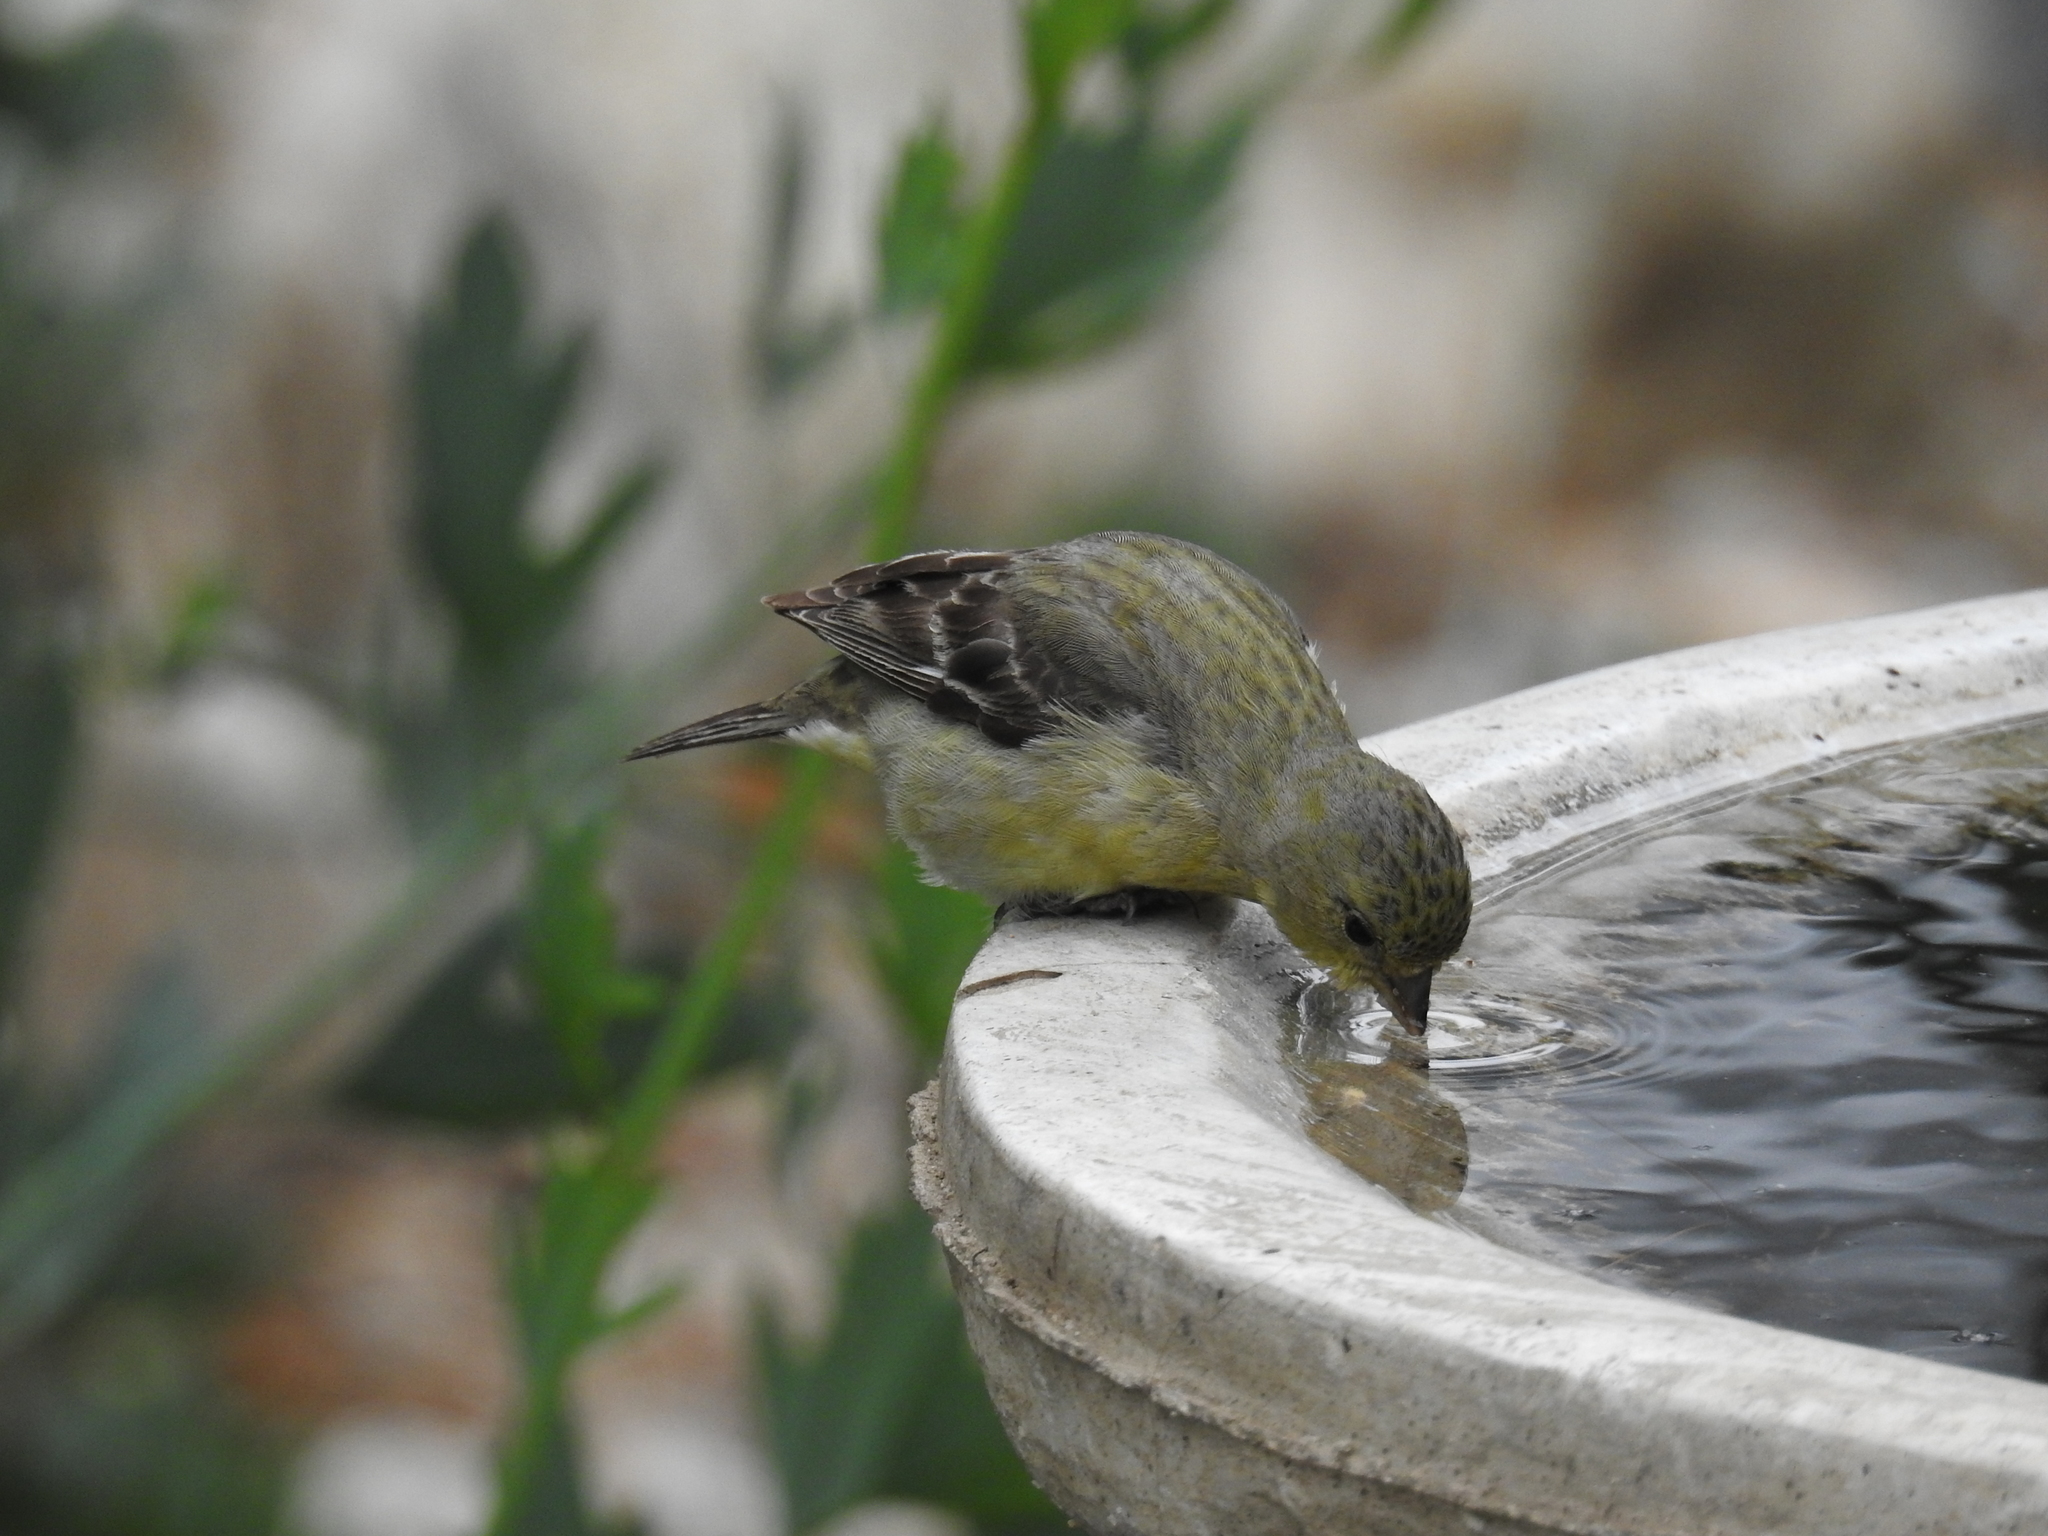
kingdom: Animalia
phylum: Chordata
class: Aves
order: Passeriformes
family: Fringillidae
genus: Spinus
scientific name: Spinus psaltria
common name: Lesser goldfinch
